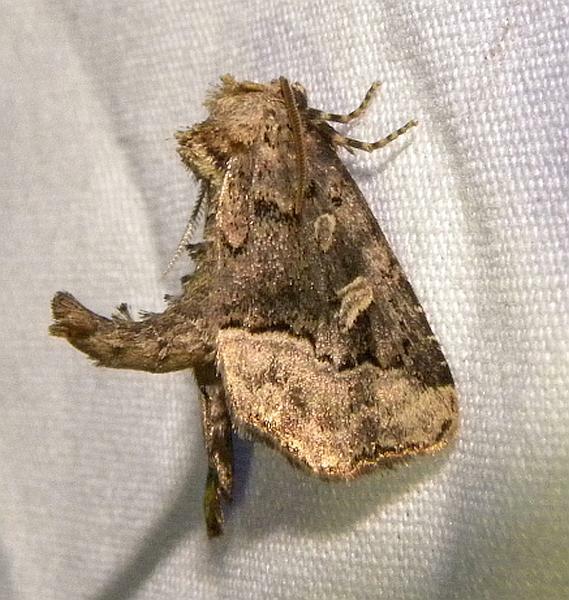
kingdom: Animalia
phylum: Arthropoda
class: Insecta
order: Lepidoptera
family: Noctuidae
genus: Homophoberia
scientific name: Homophoberia cristata
